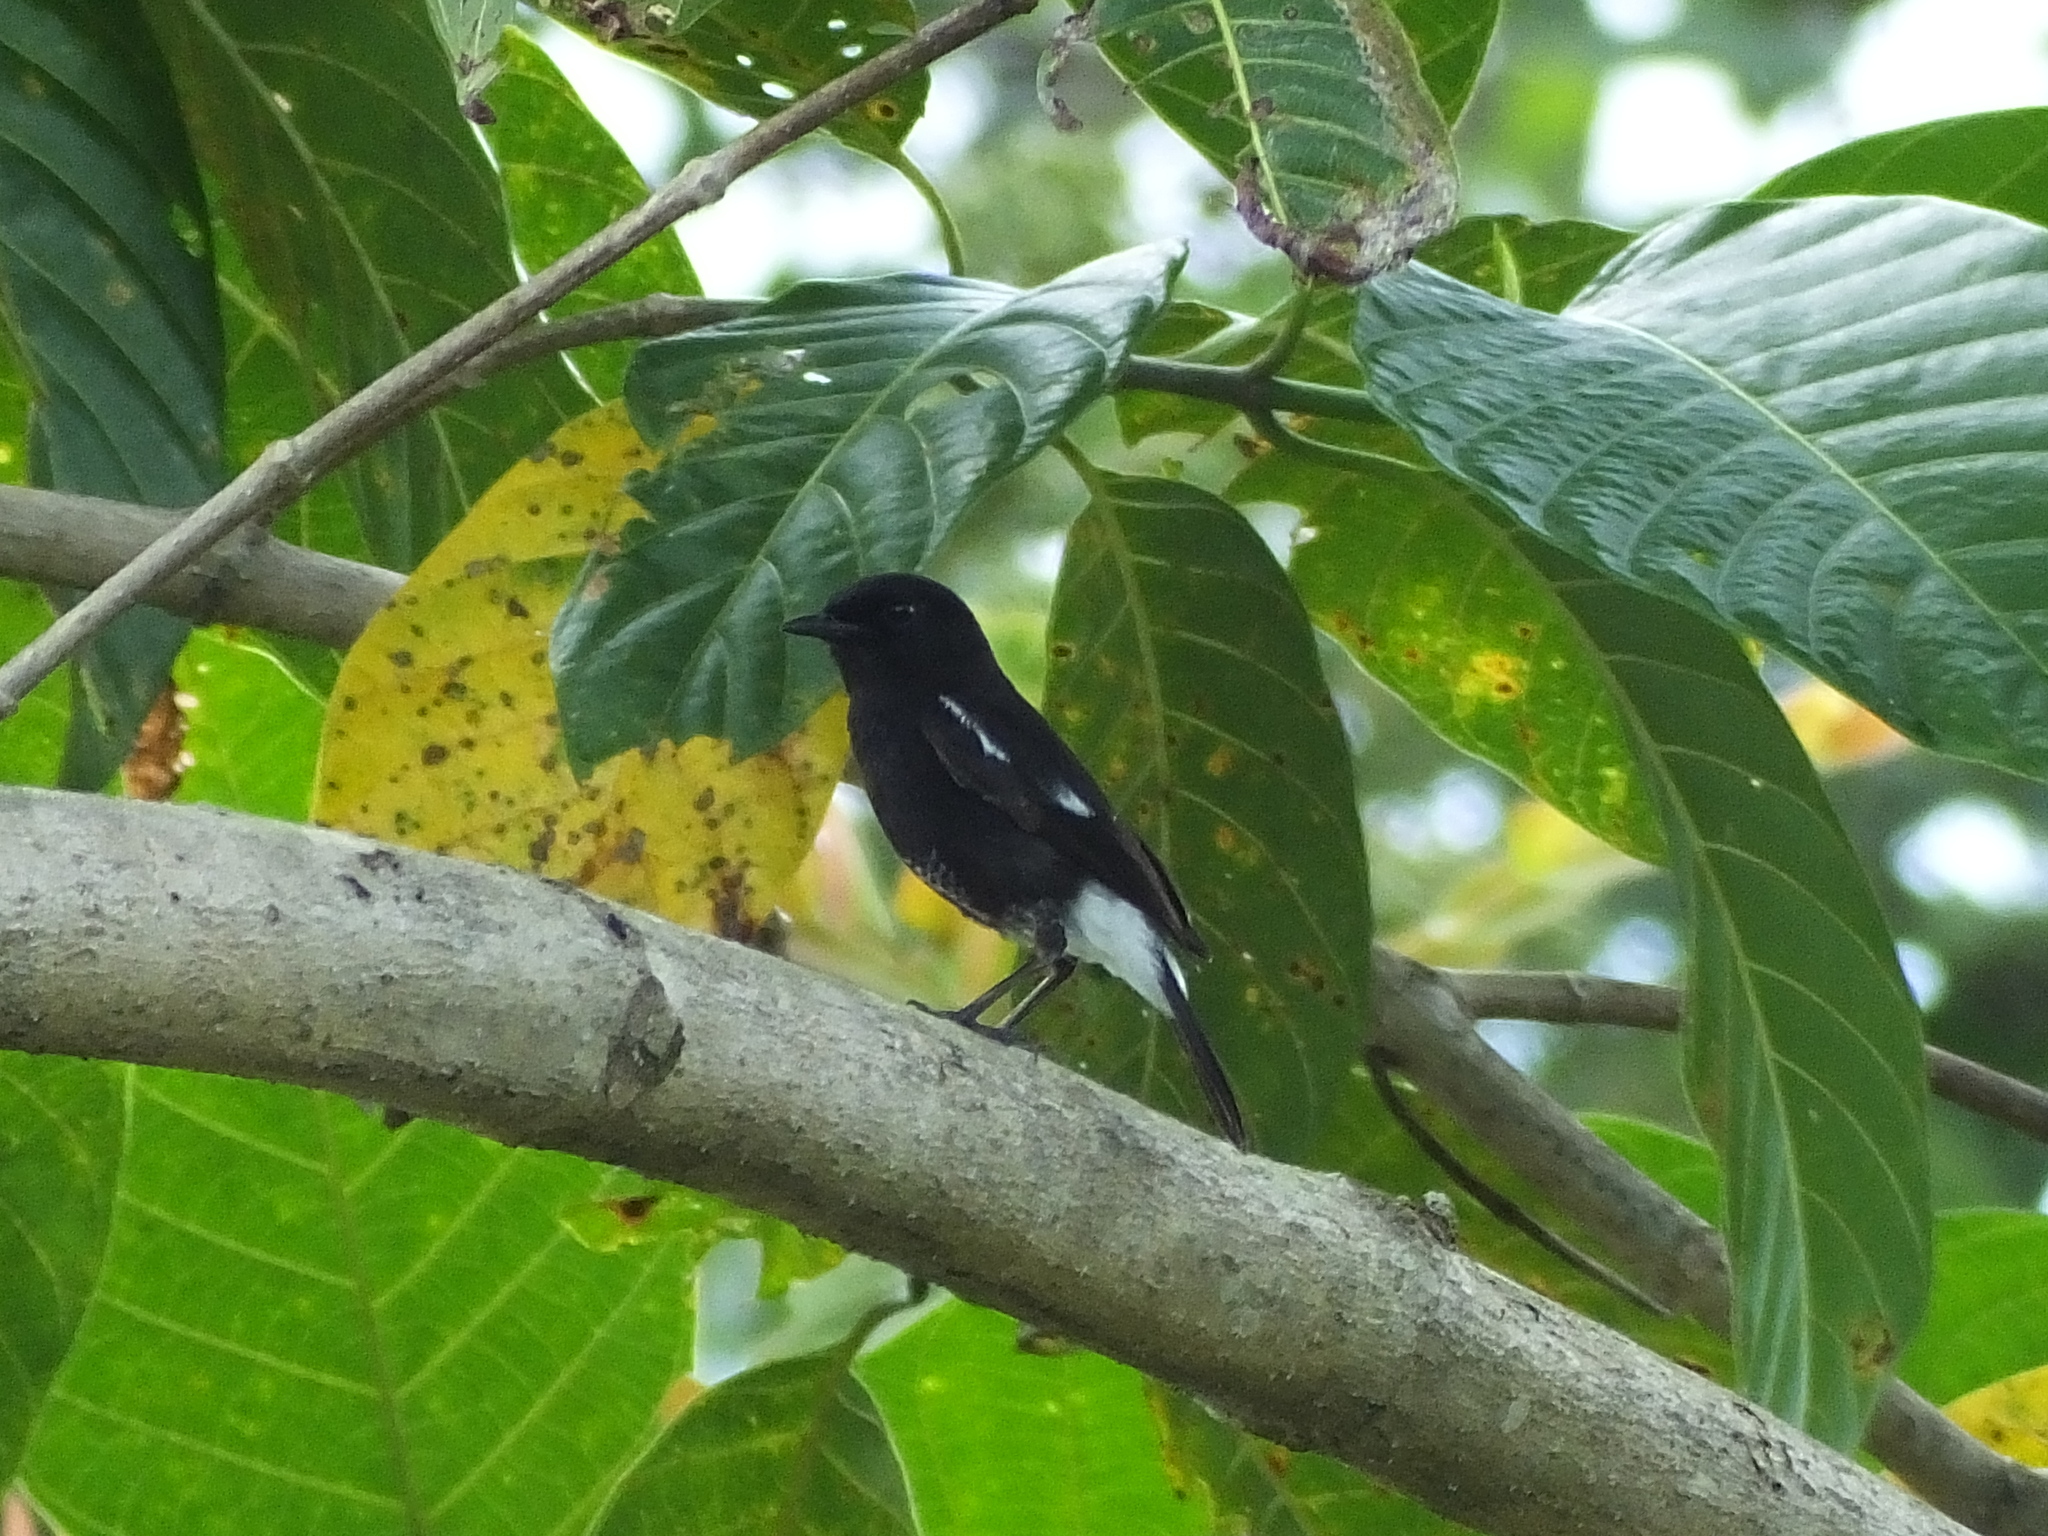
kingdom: Animalia
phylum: Chordata
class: Aves
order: Passeriformes
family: Muscicapidae
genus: Saxicola
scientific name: Saxicola caprata
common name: Pied bush chat
